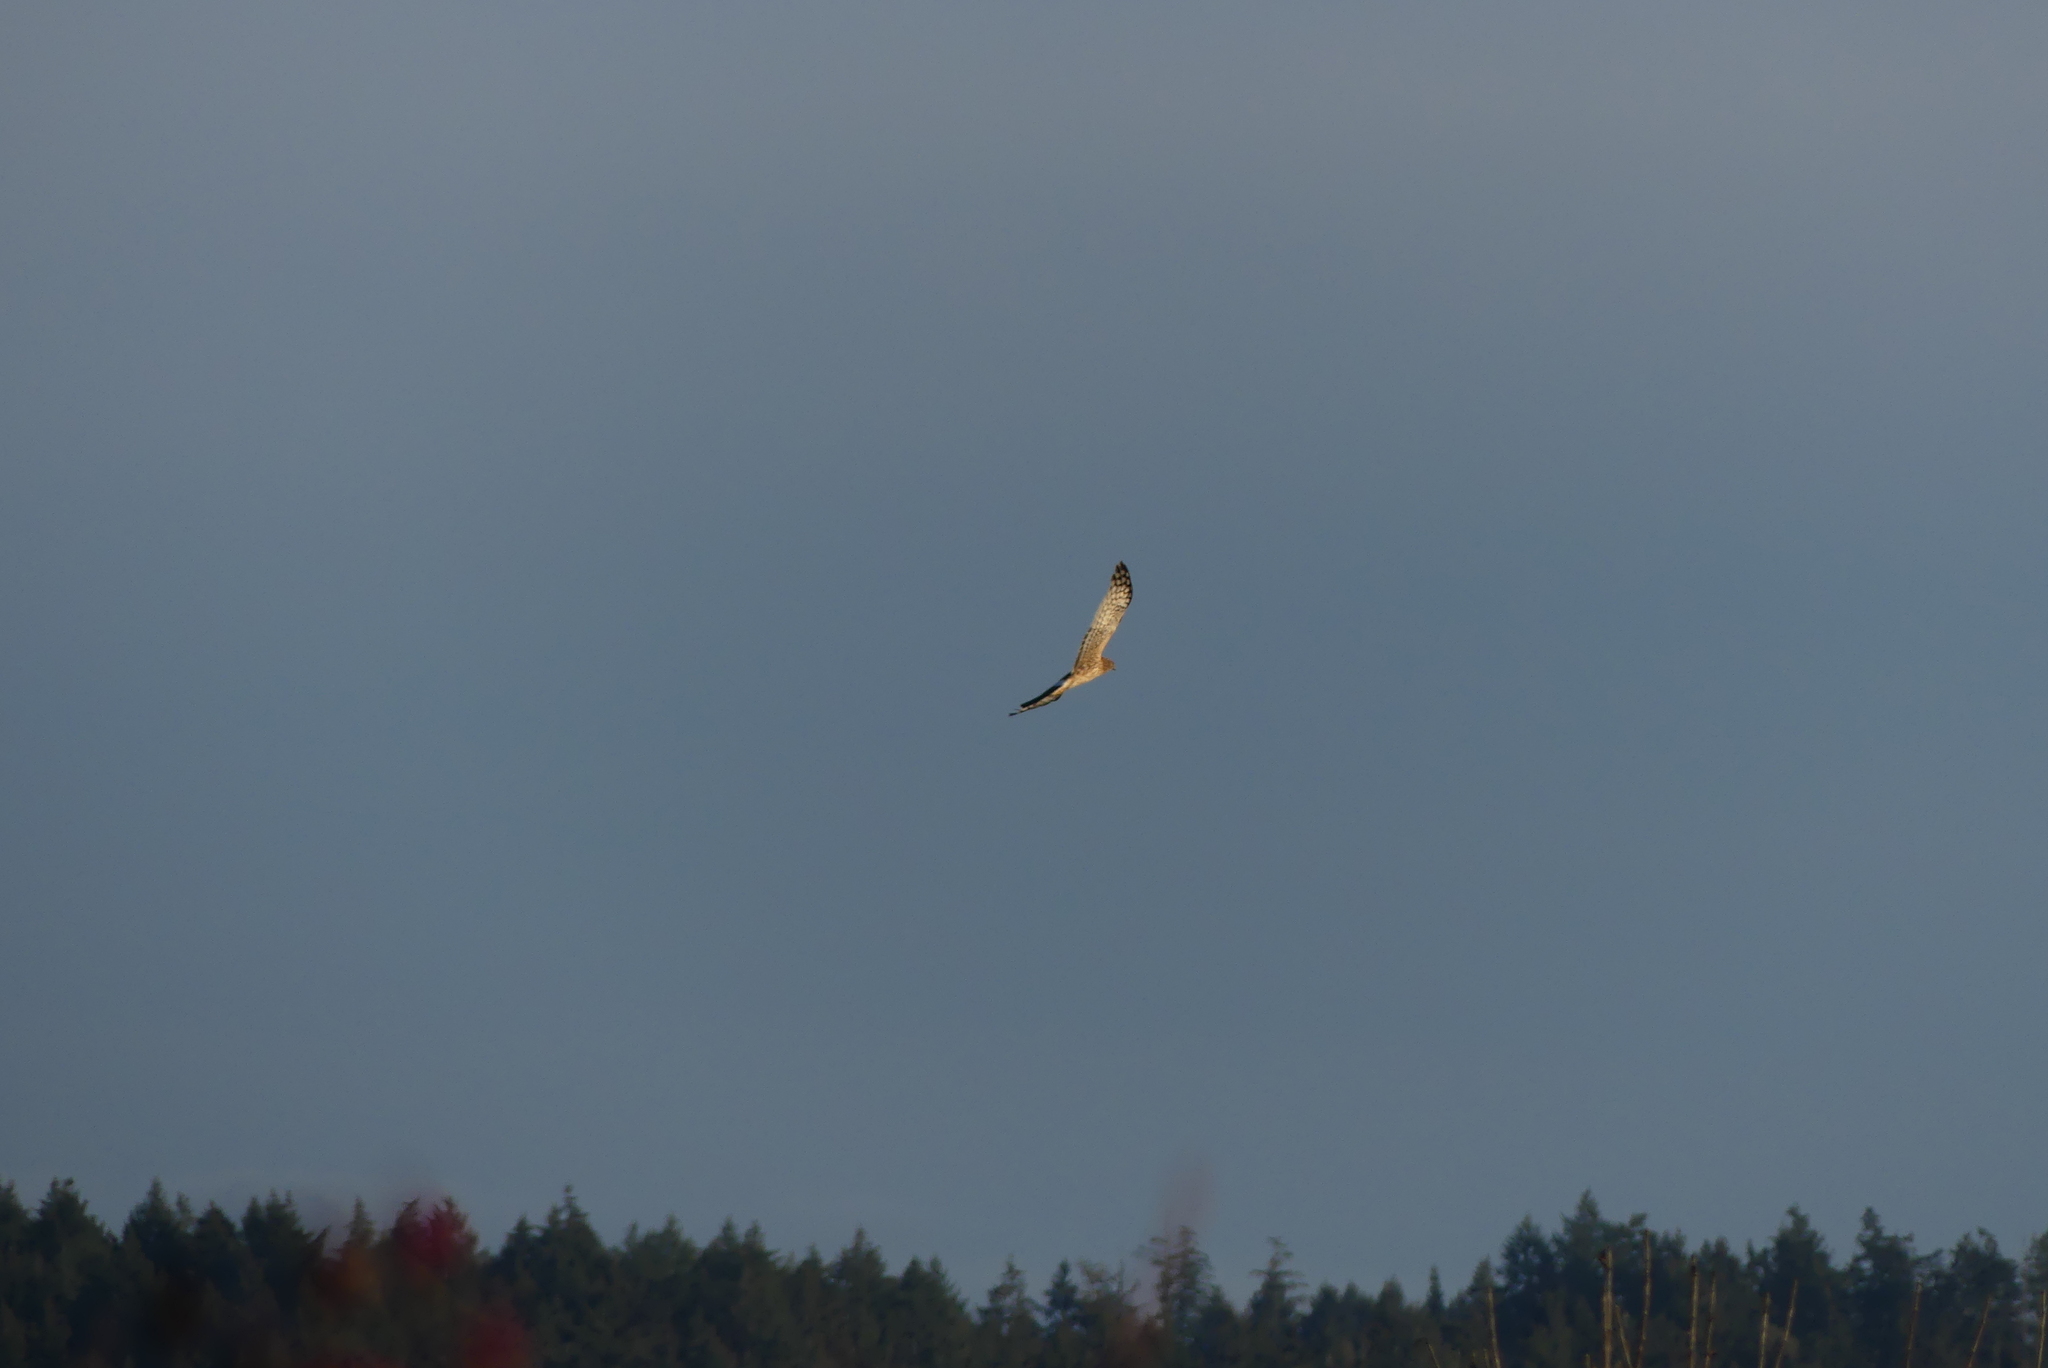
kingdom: Animalia
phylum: Chordata
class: Aves
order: Accipitriformes
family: Accipitridae
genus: Circus
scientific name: Circus cyaneus
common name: Hen harrier
